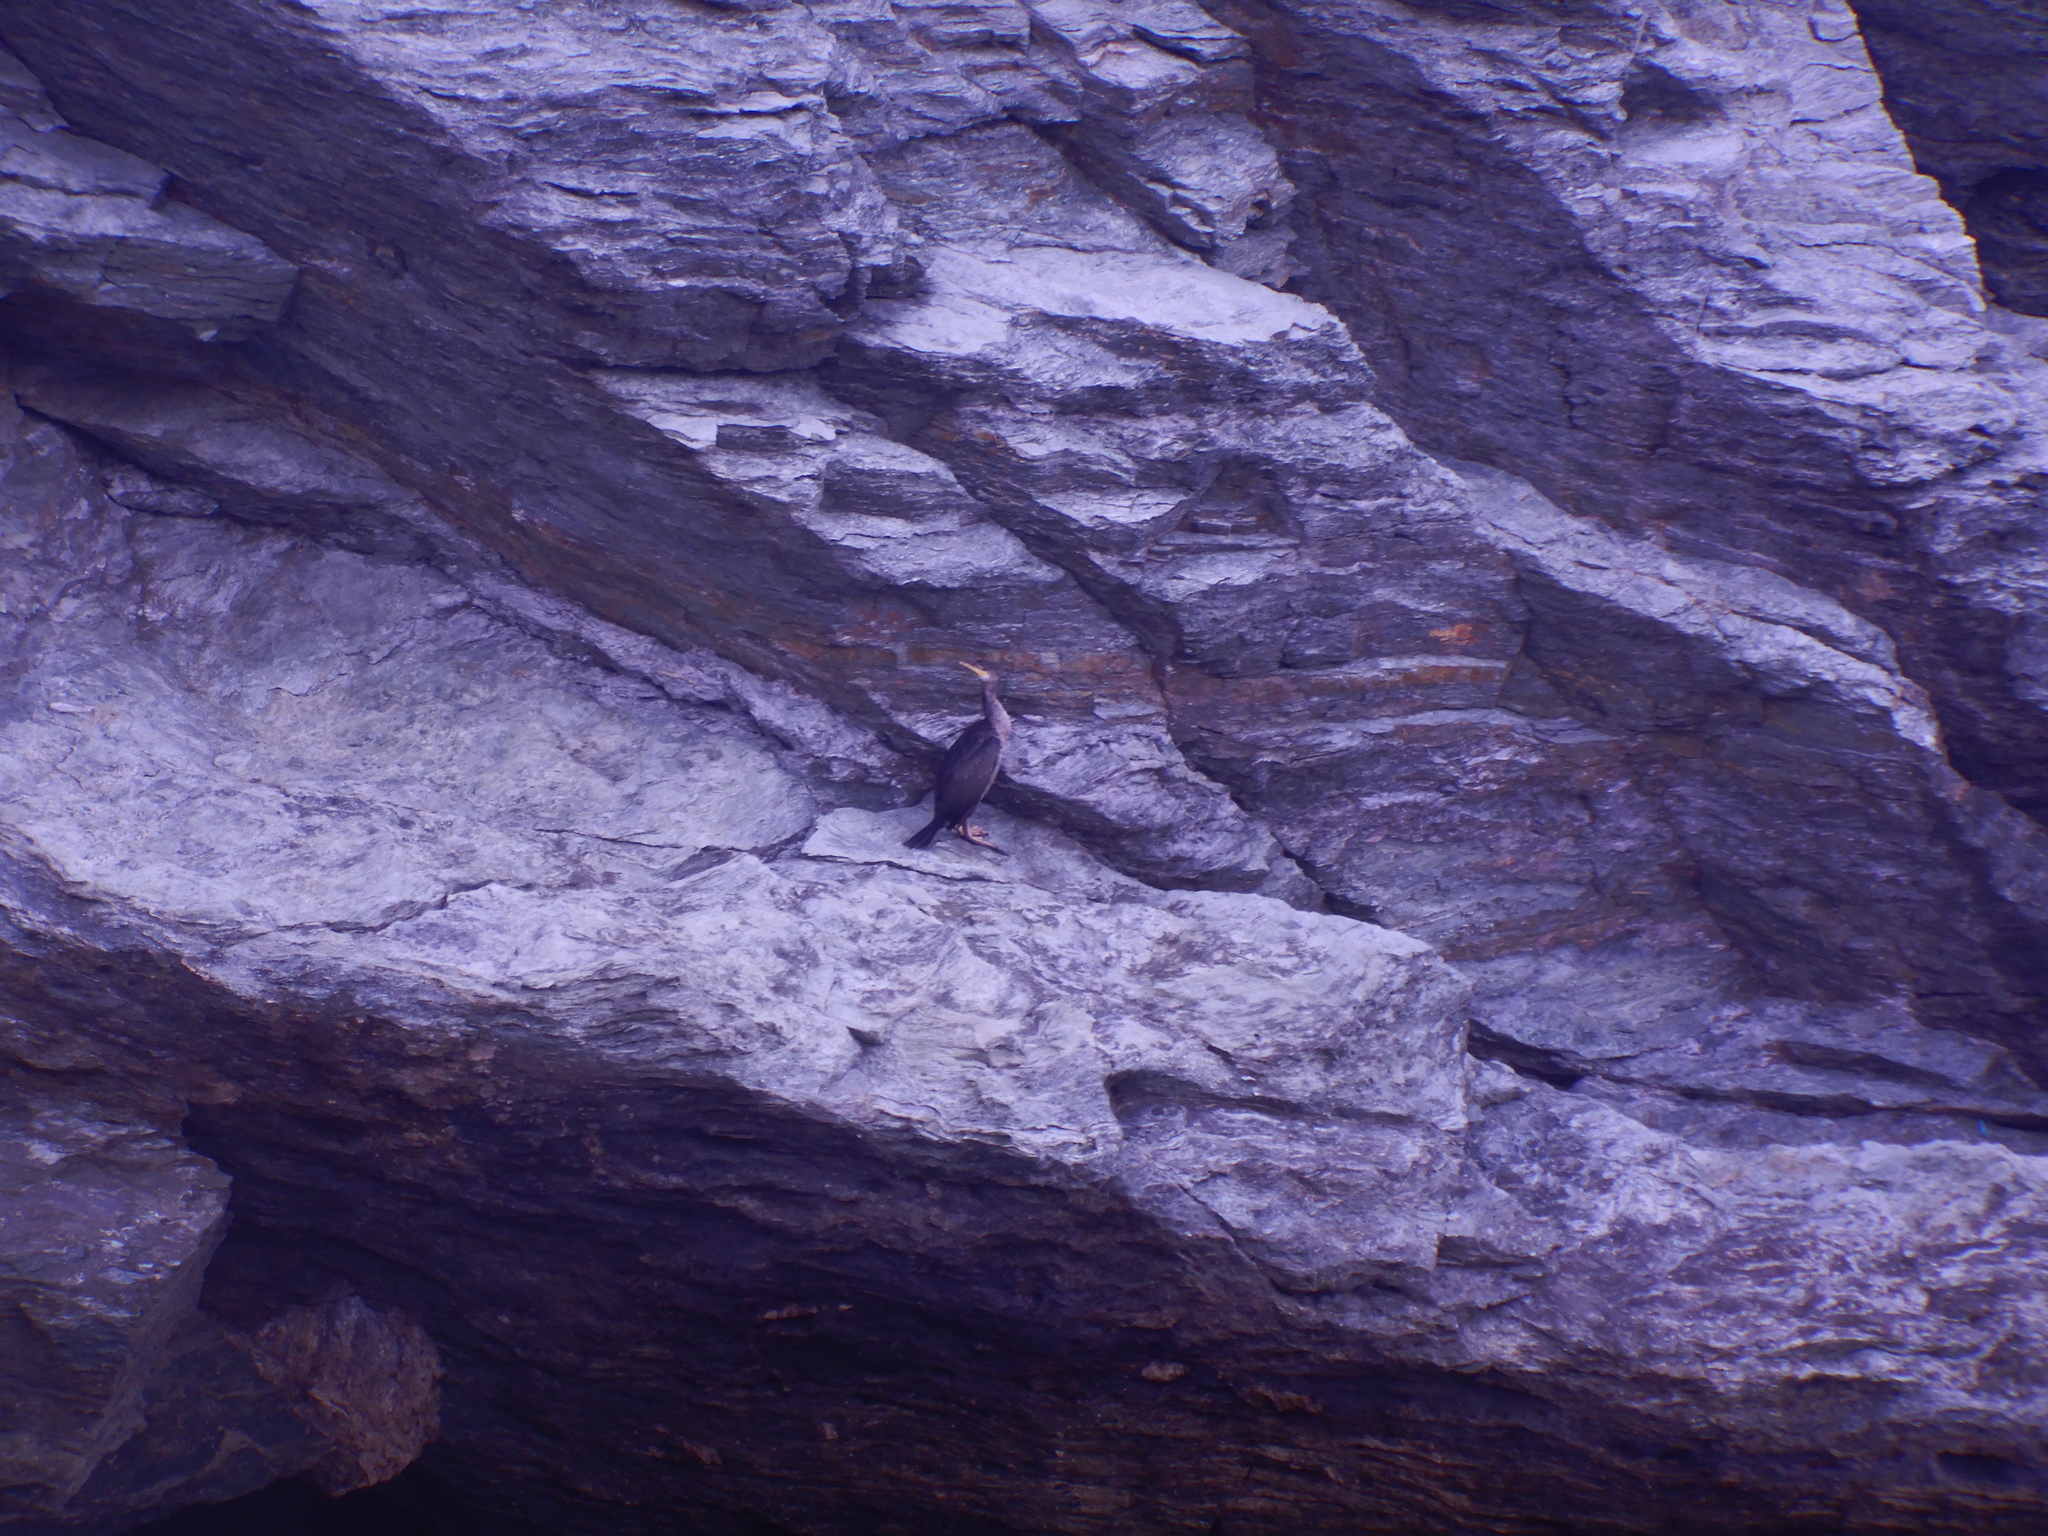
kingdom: Animalia
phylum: Chordata
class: Aves
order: Suliformes
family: Phalacrocoracidae
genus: Phalacrocorax
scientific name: Phalacrocorax aristotelis
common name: European shag
